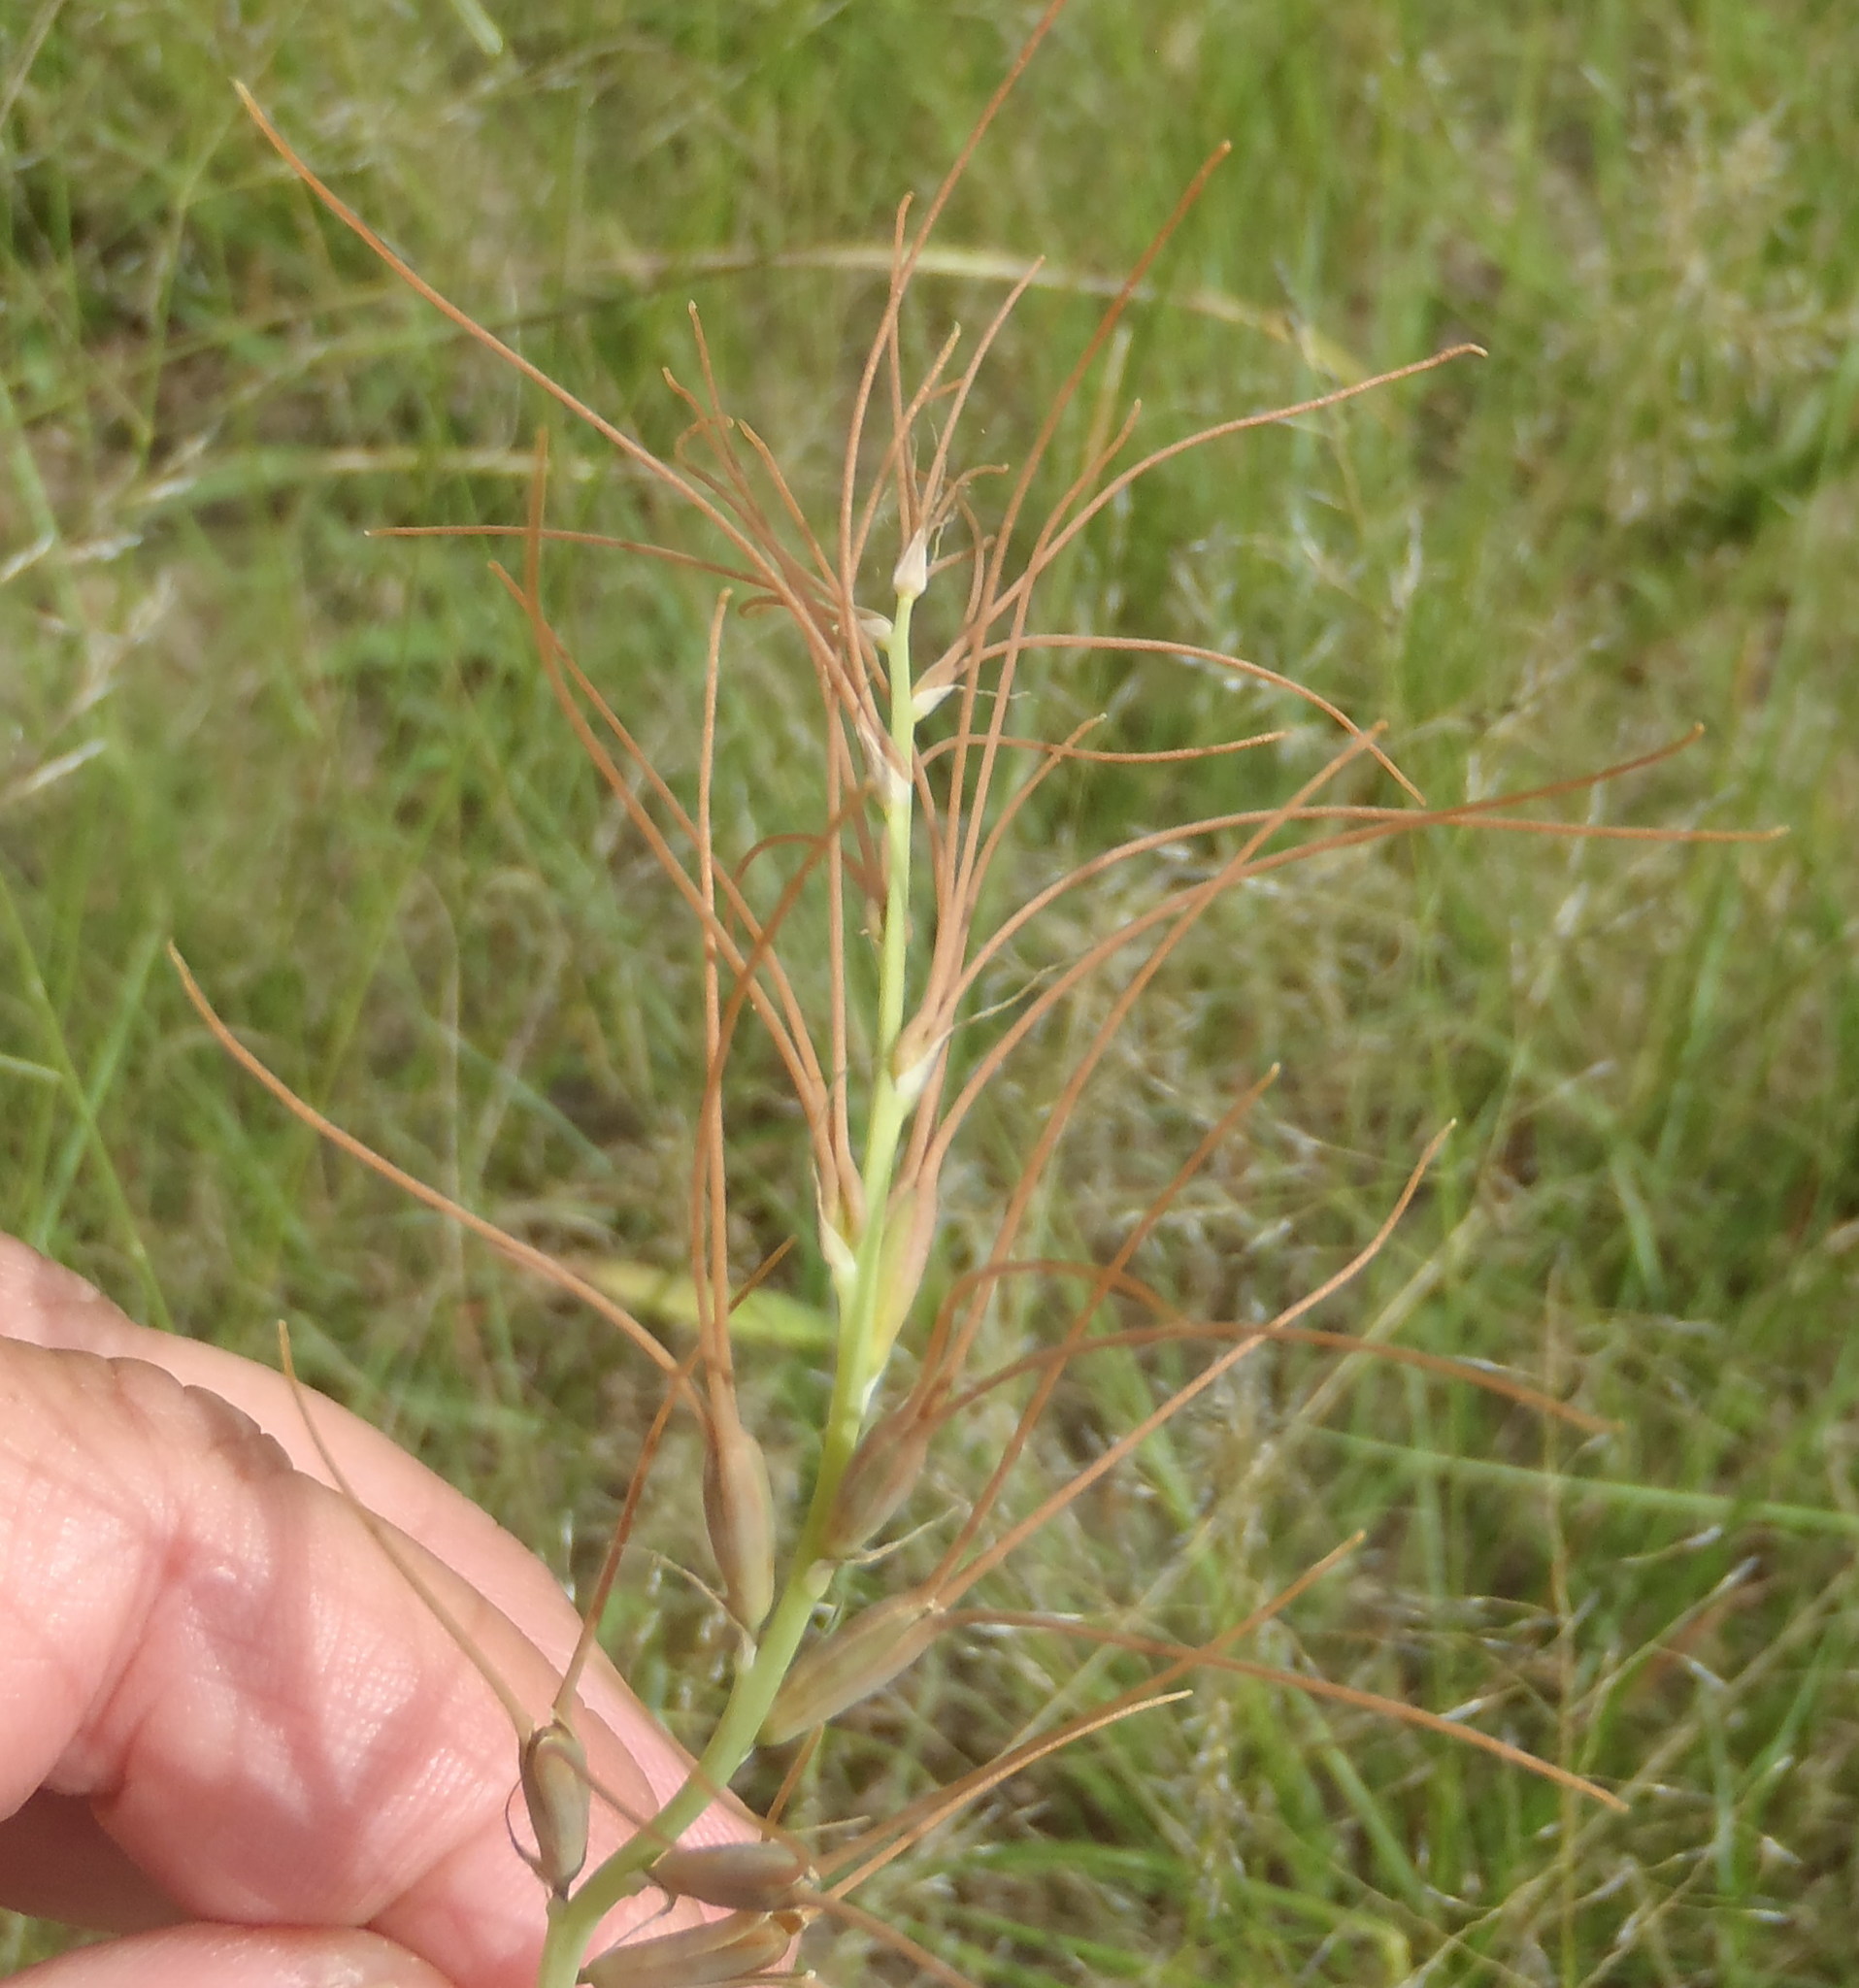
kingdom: Plantae
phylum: Tracheophyta
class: Liliopsida
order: Asparagales
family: Asparagaceae
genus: Dipcadi
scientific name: Dipcadi viride
